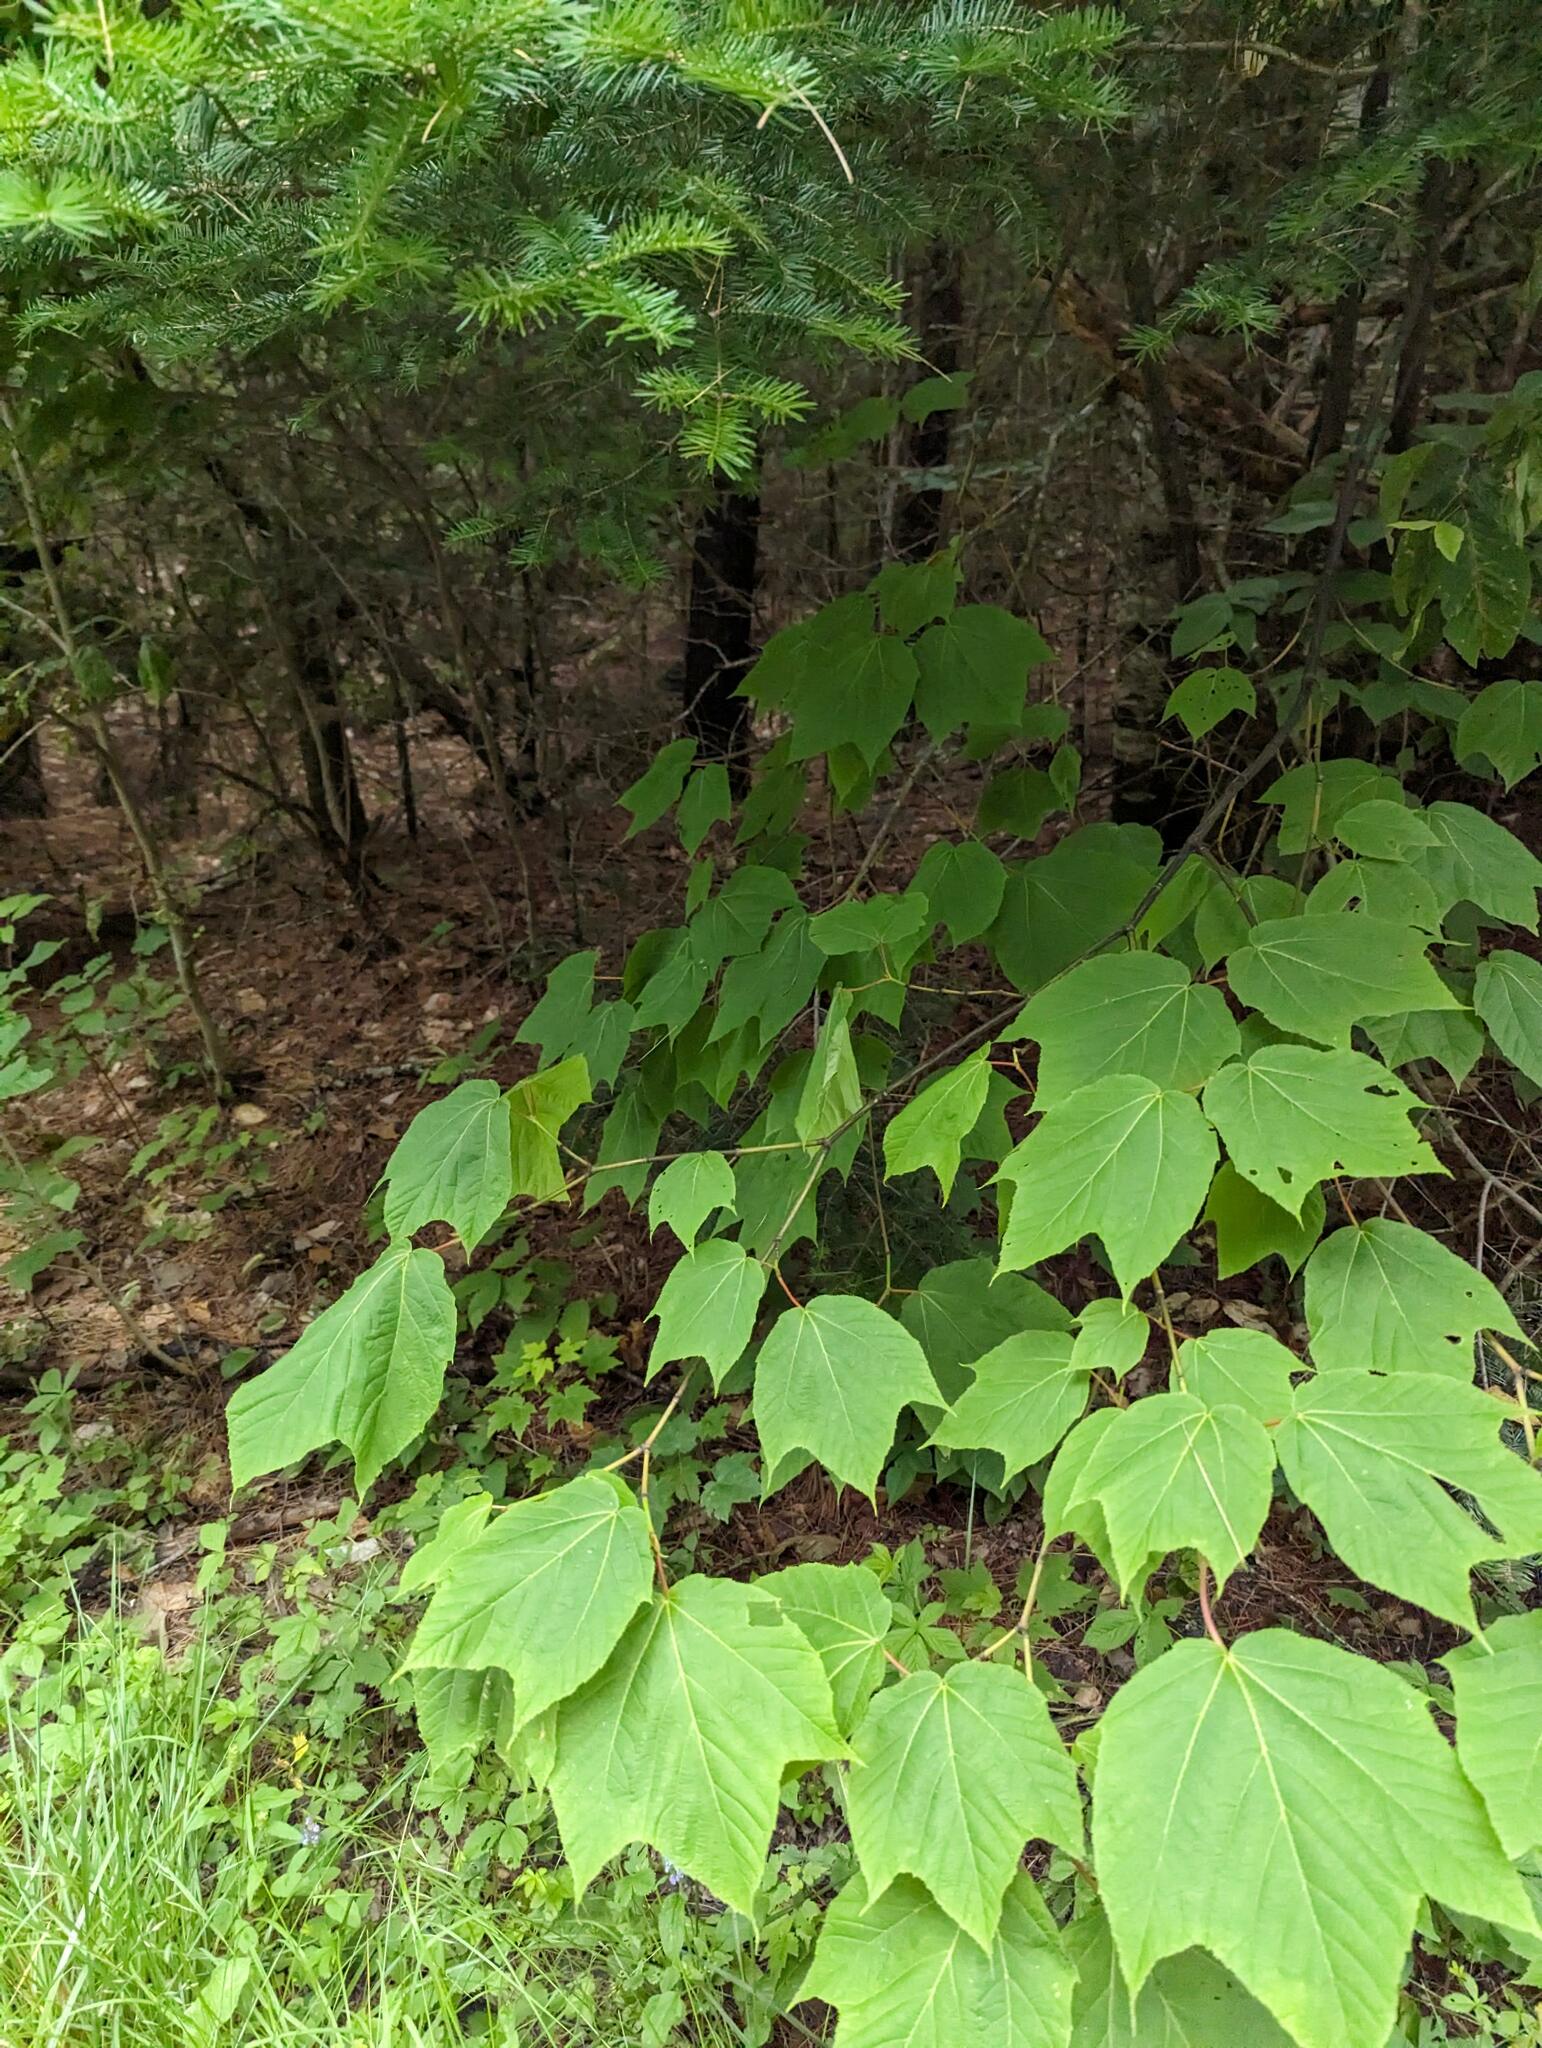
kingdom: Plantae
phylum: Tracheophyta
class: Magnoliopsida
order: Sapindales
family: Sapindaceae
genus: Acer
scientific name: Acer pensylvanicum
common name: Moosewood
